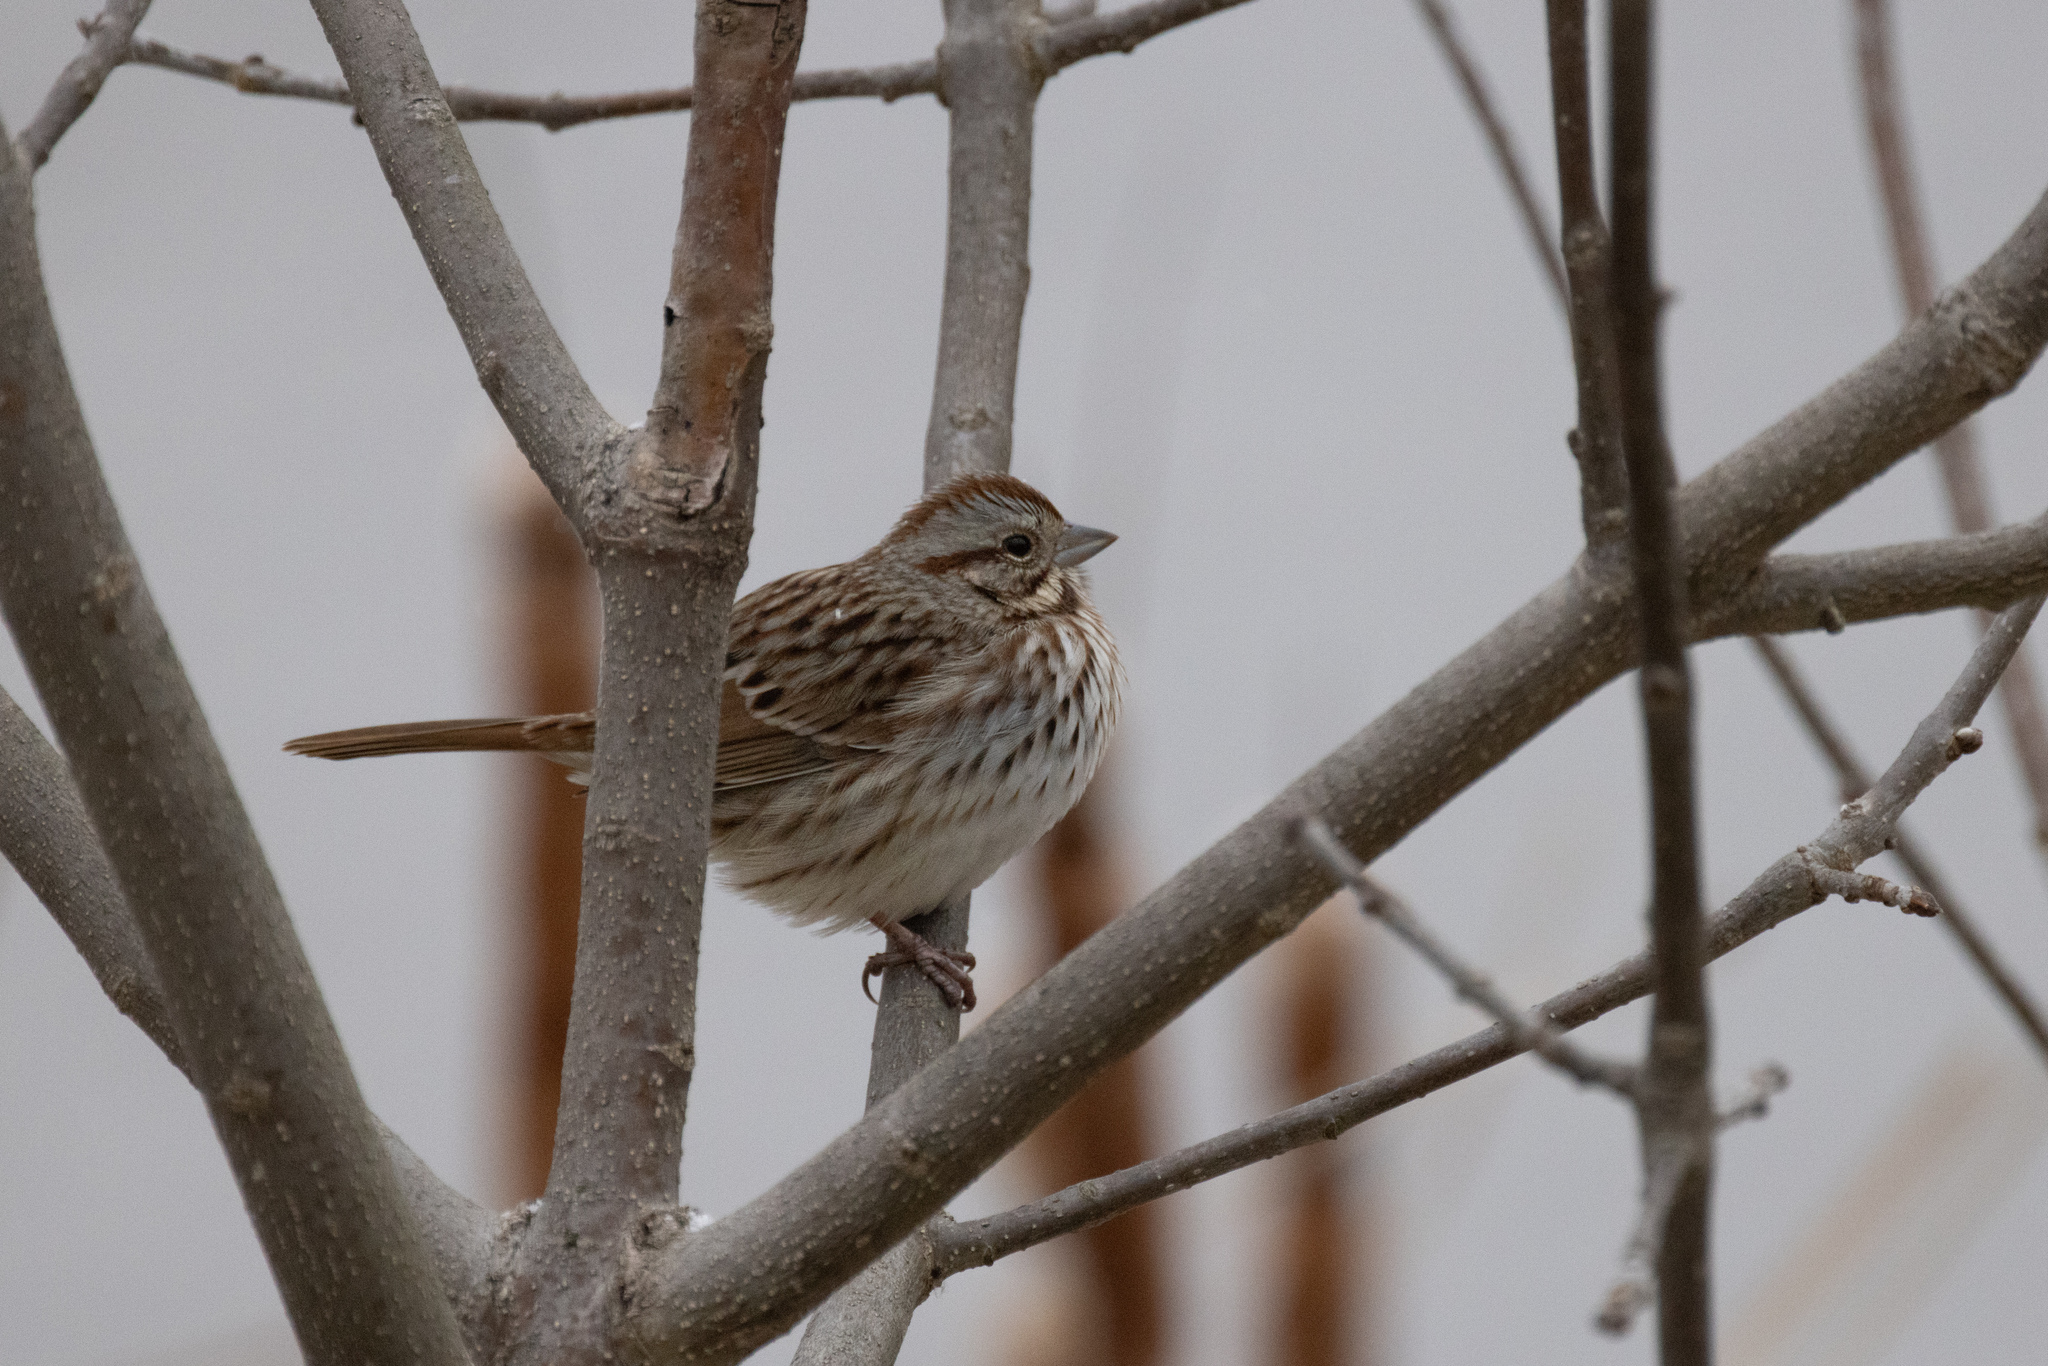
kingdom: Animalia
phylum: Chordata
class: Aves
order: Passeriformes
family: Passerellidae
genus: Melospiza
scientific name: Melospiza melodia
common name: Song sparrow
